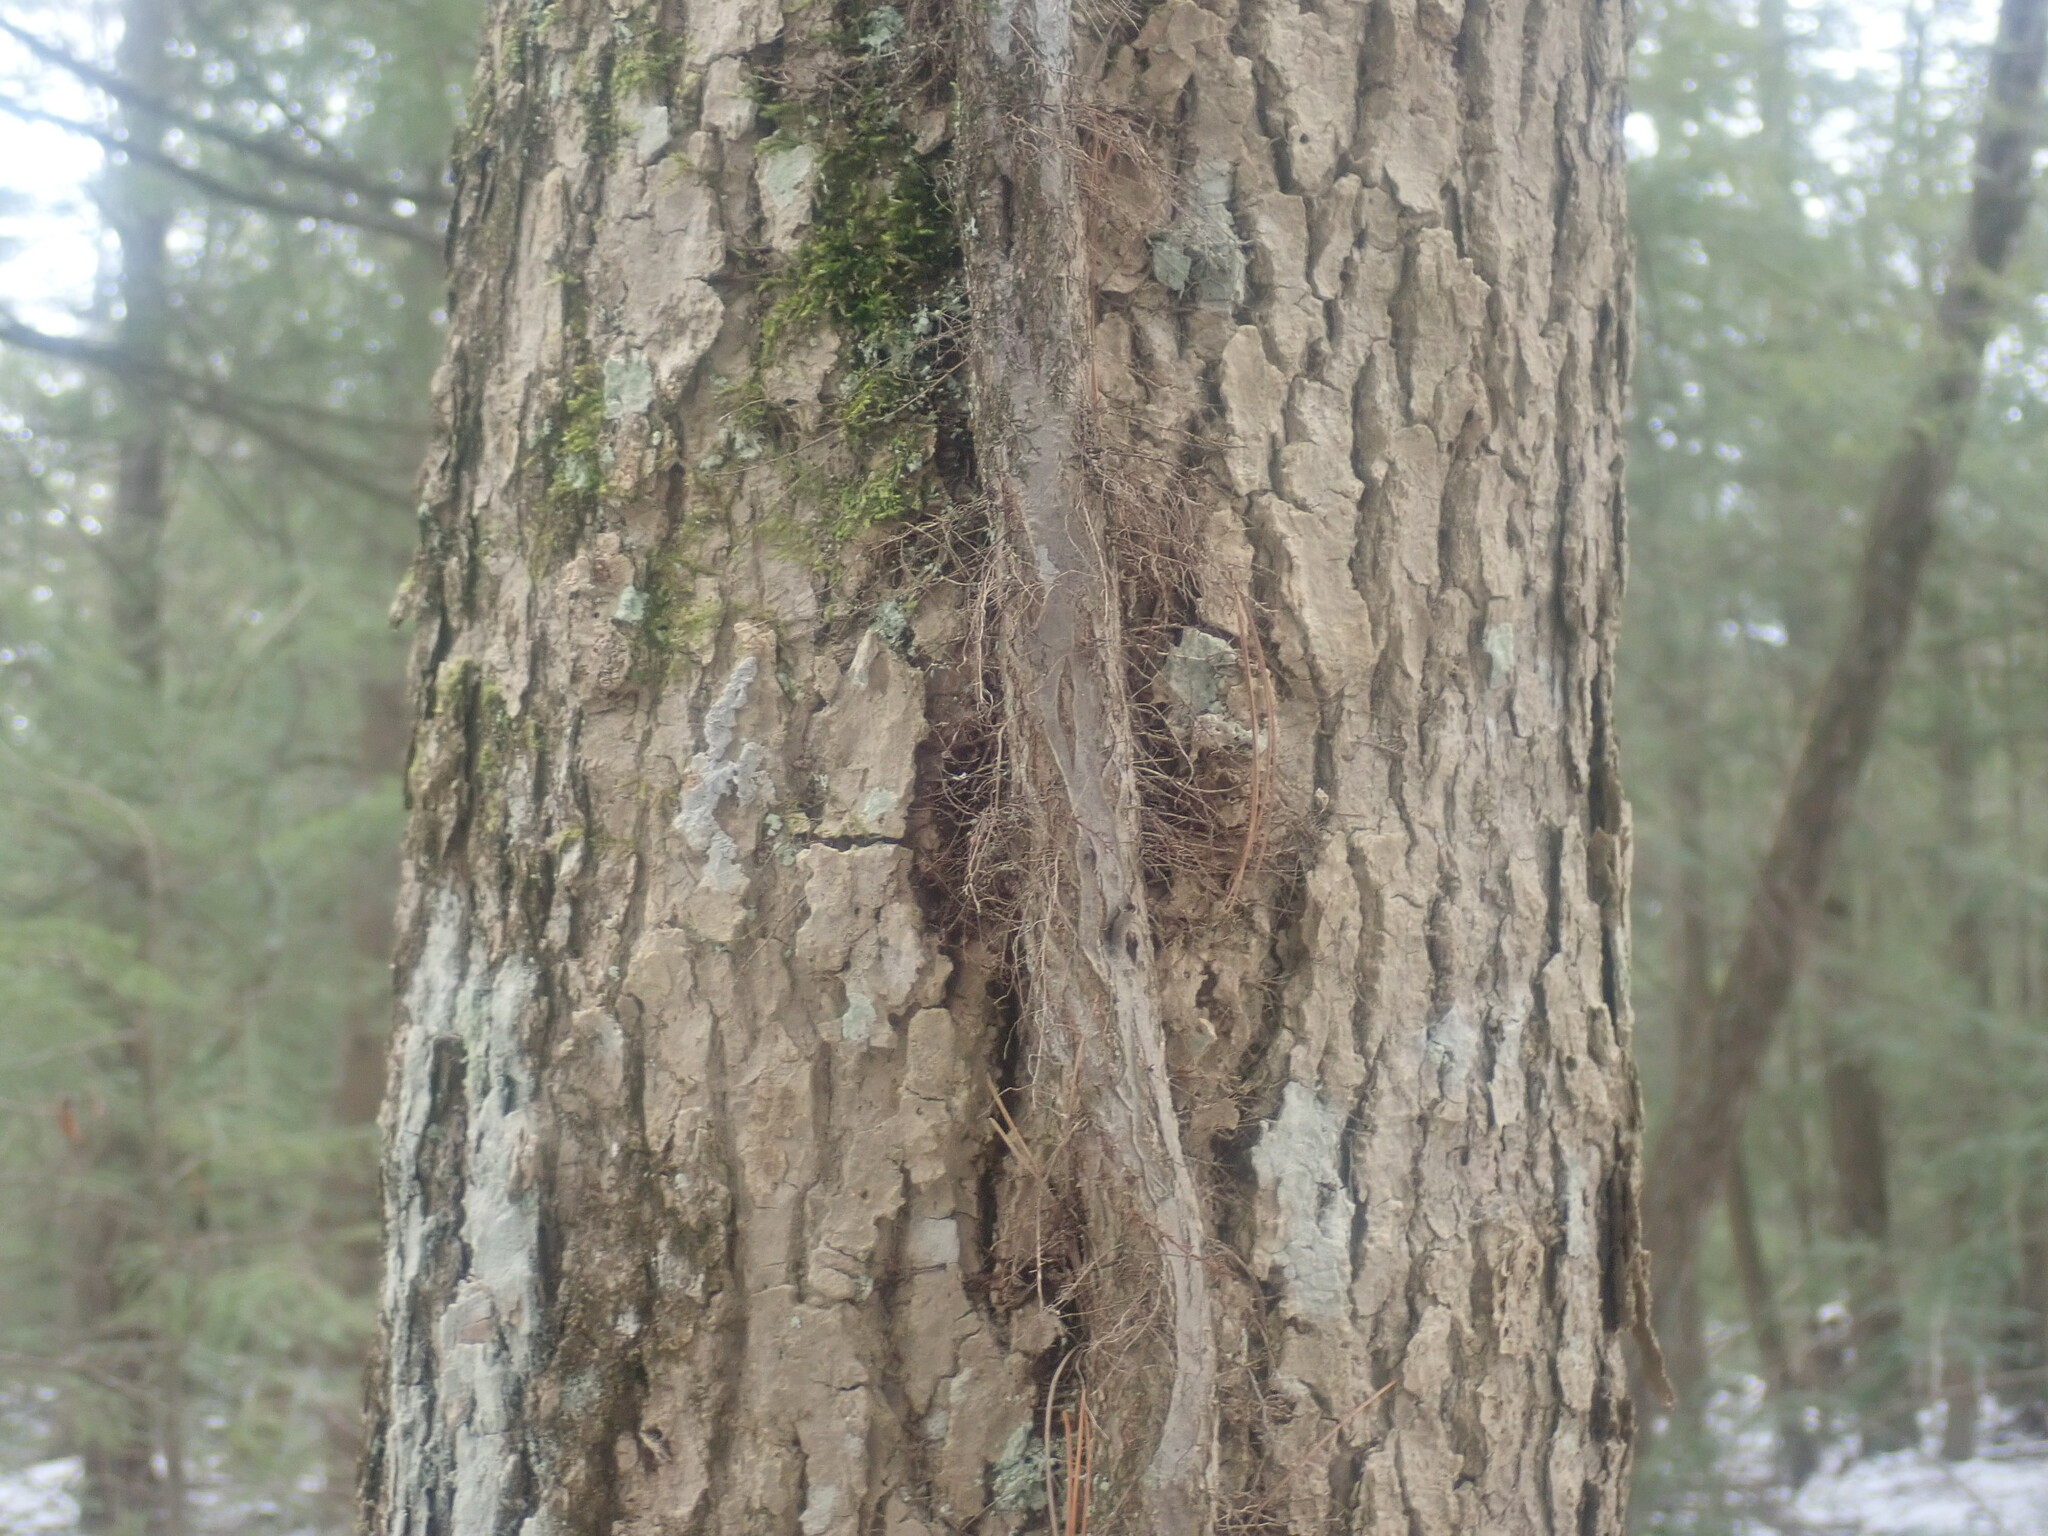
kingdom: Plantae
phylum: Tracheophyta
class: Magnoliopsida
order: Sapindales
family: Anacardiaceae
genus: Toxicodendron
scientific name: Toxicodendron radicans
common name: Poison ivy
